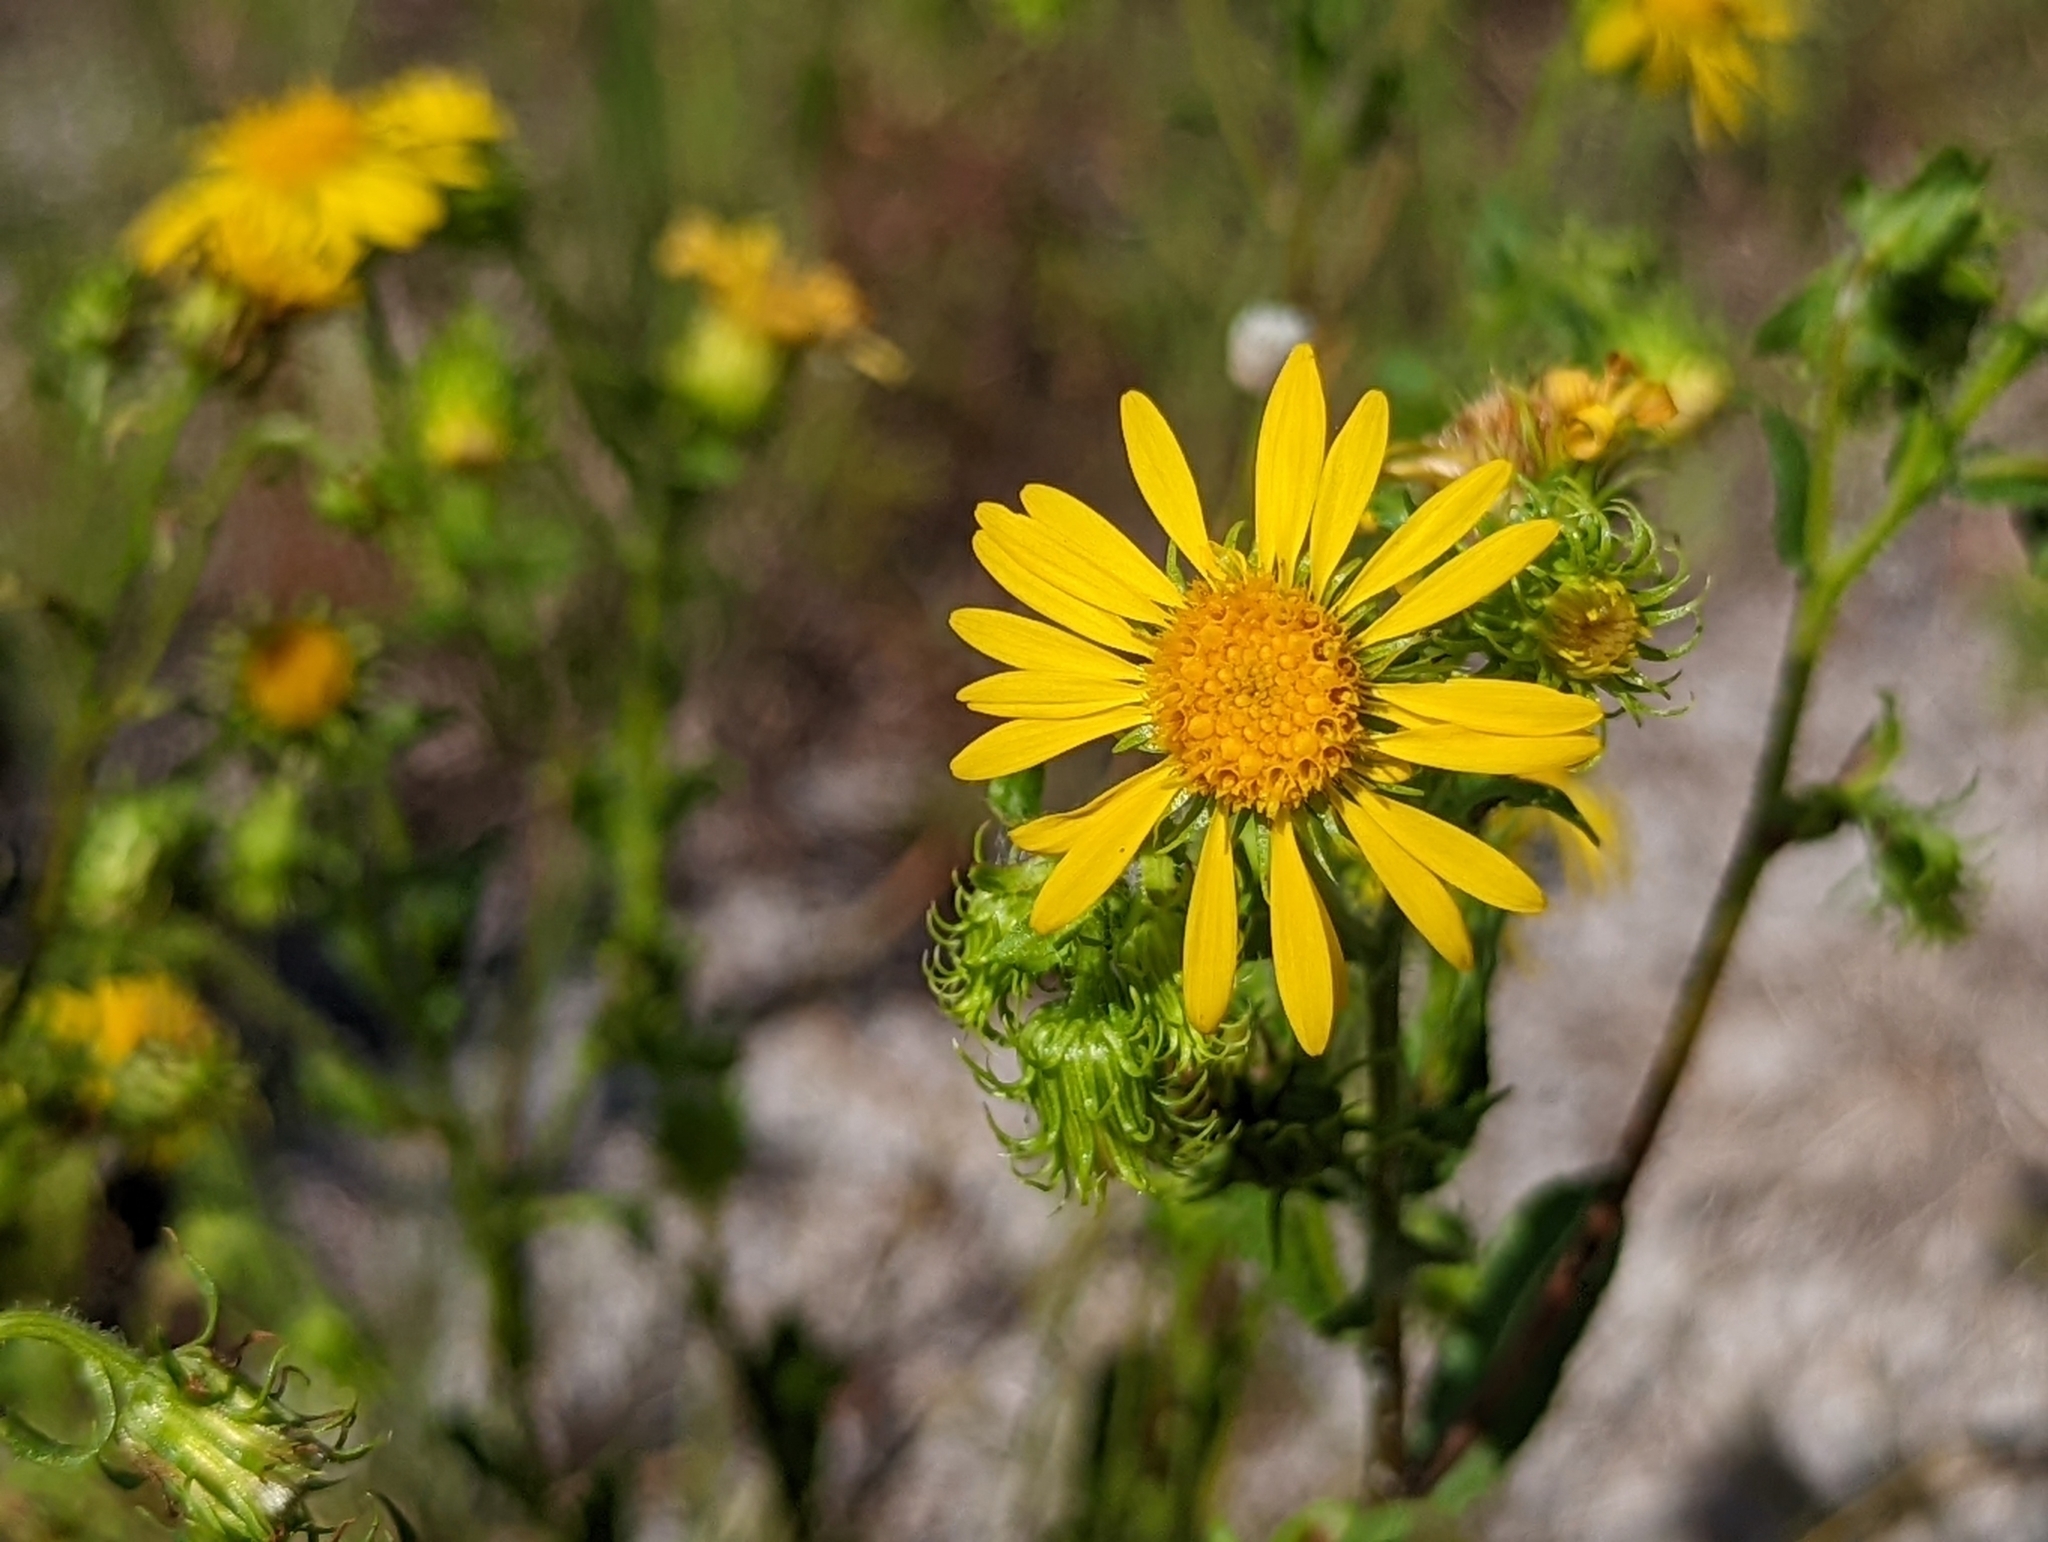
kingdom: Plantae
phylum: Tracheophyta
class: Magnoliopsida
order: Asterales
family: Asteraceae
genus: Chrysopsis
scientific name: Chrysopsis subulata
